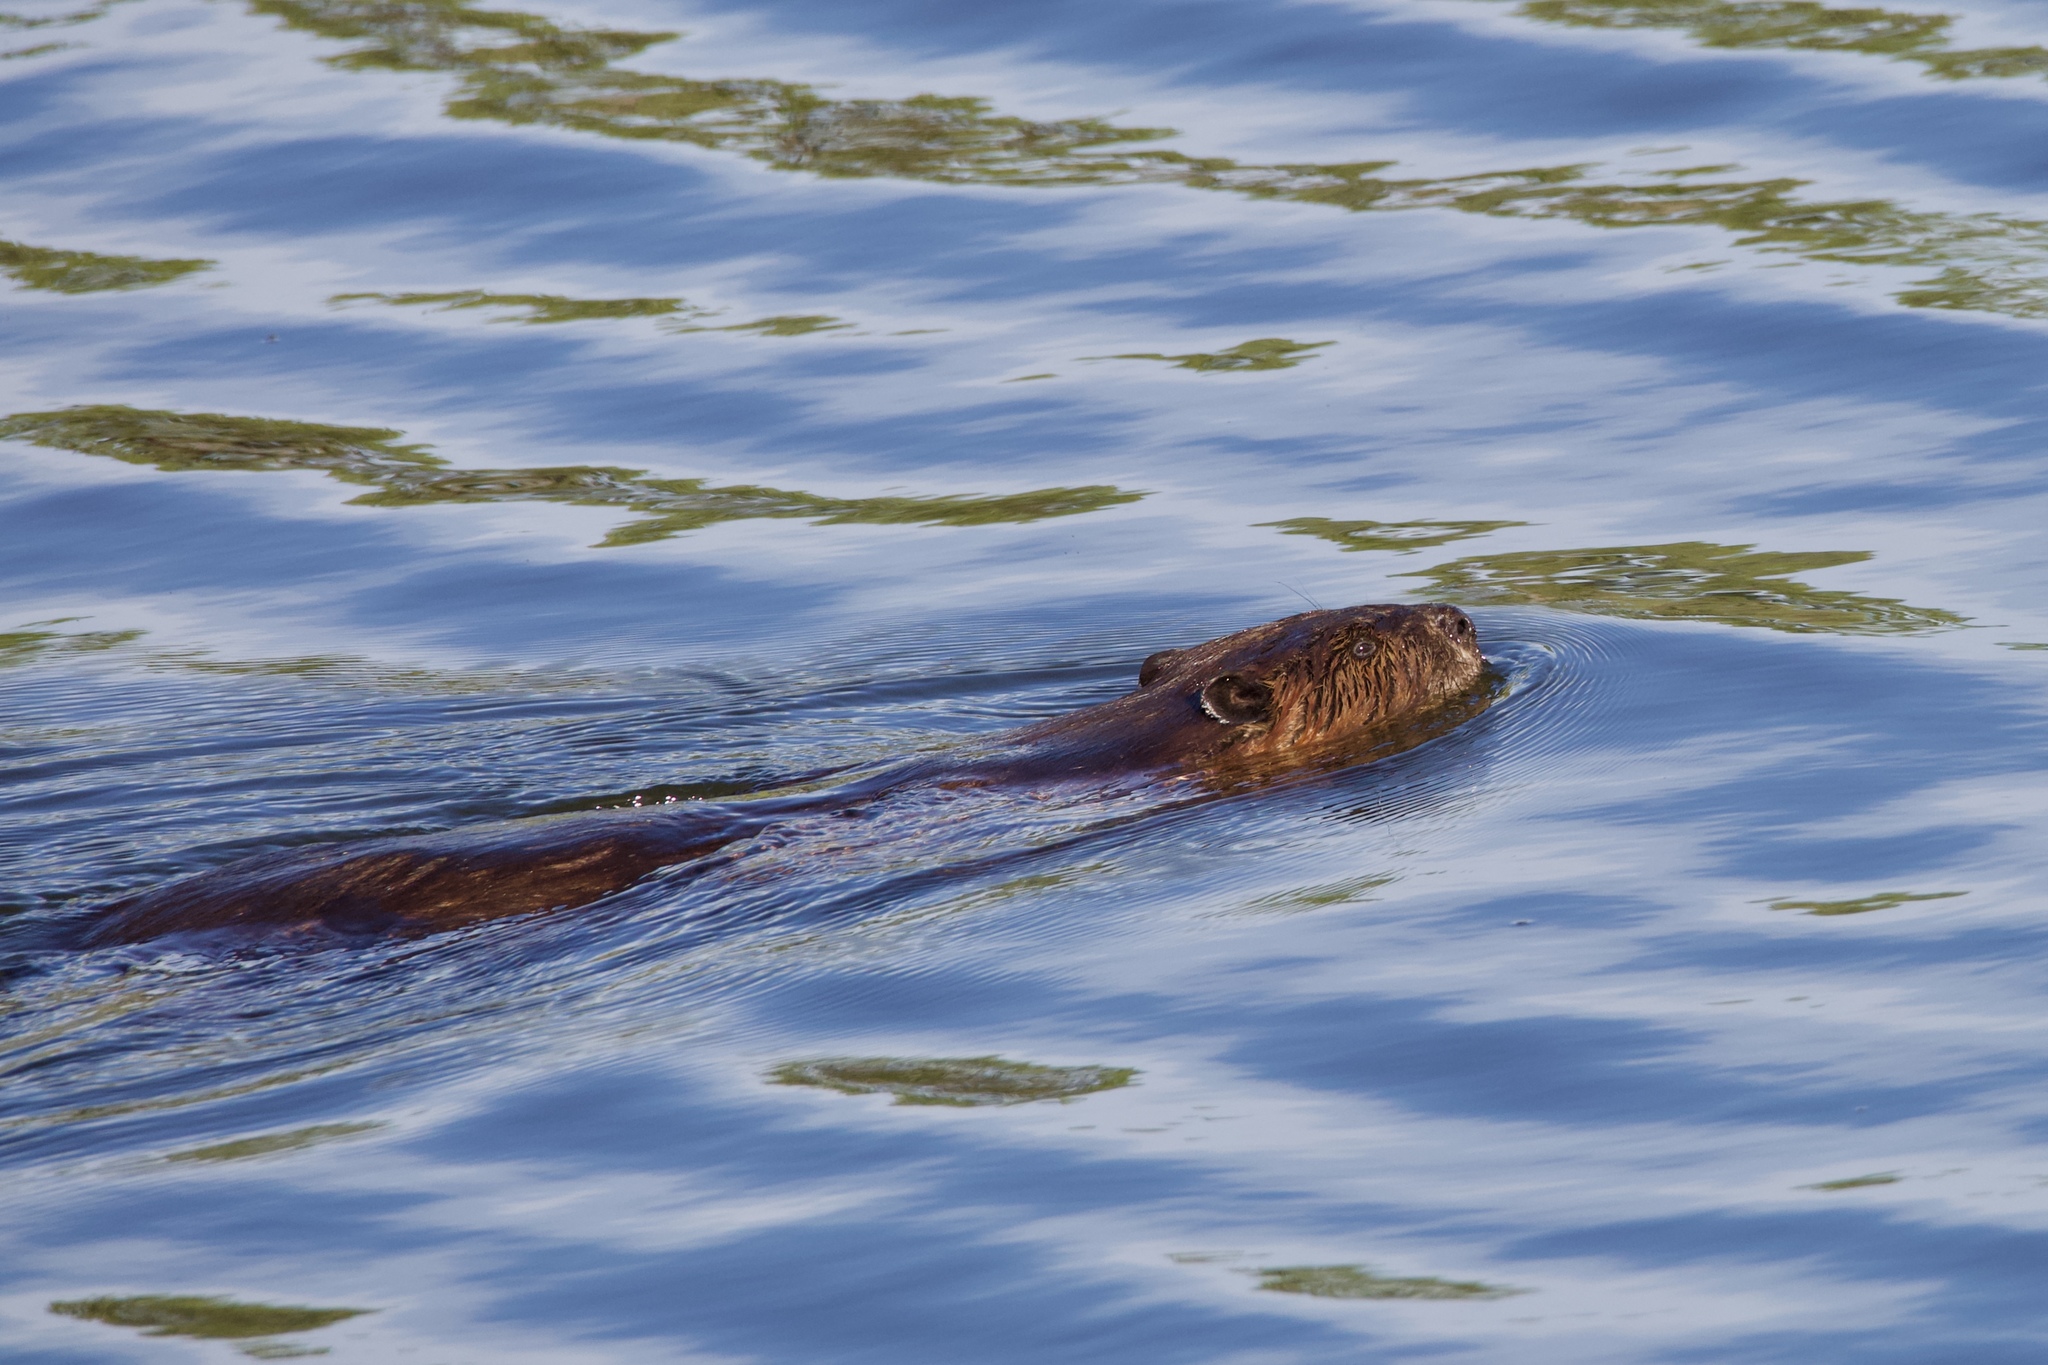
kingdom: Animalia
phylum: Chordata
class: Mammalia
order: Rodentia
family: Castoridae
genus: Castor
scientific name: Castor canadensis
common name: American beaver
